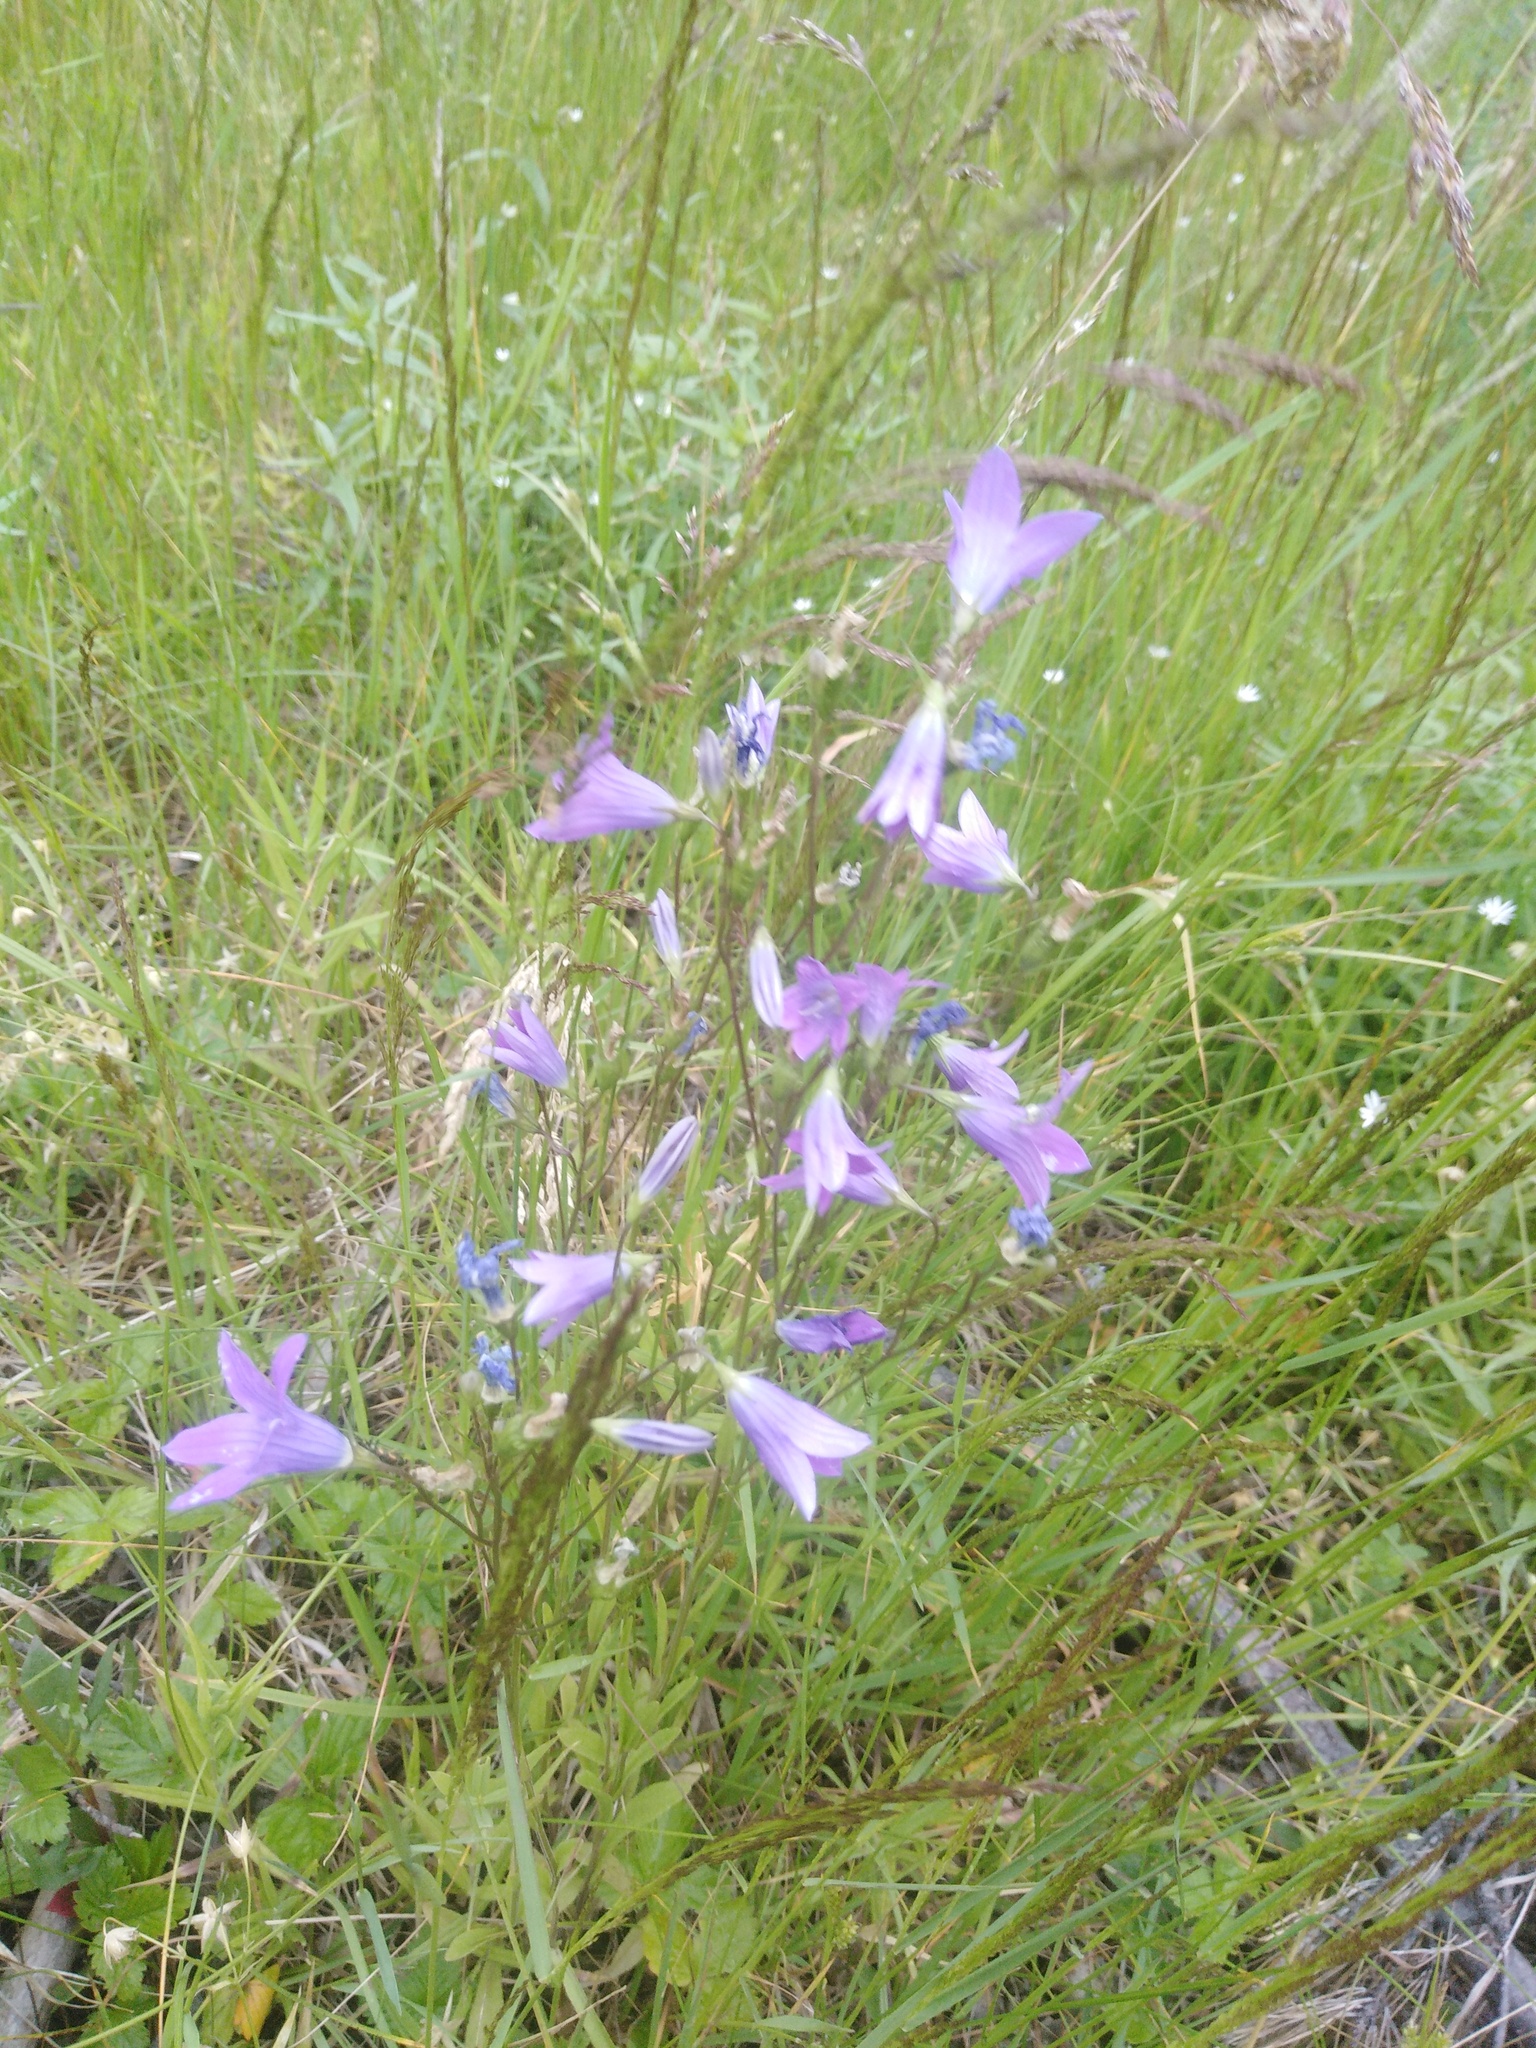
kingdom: Plantae
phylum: Tracheophyta
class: Magnoliopsida
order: Asterales
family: Campanulaceae
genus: Campanula
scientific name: Campanula patula
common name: Spreading bellflower
